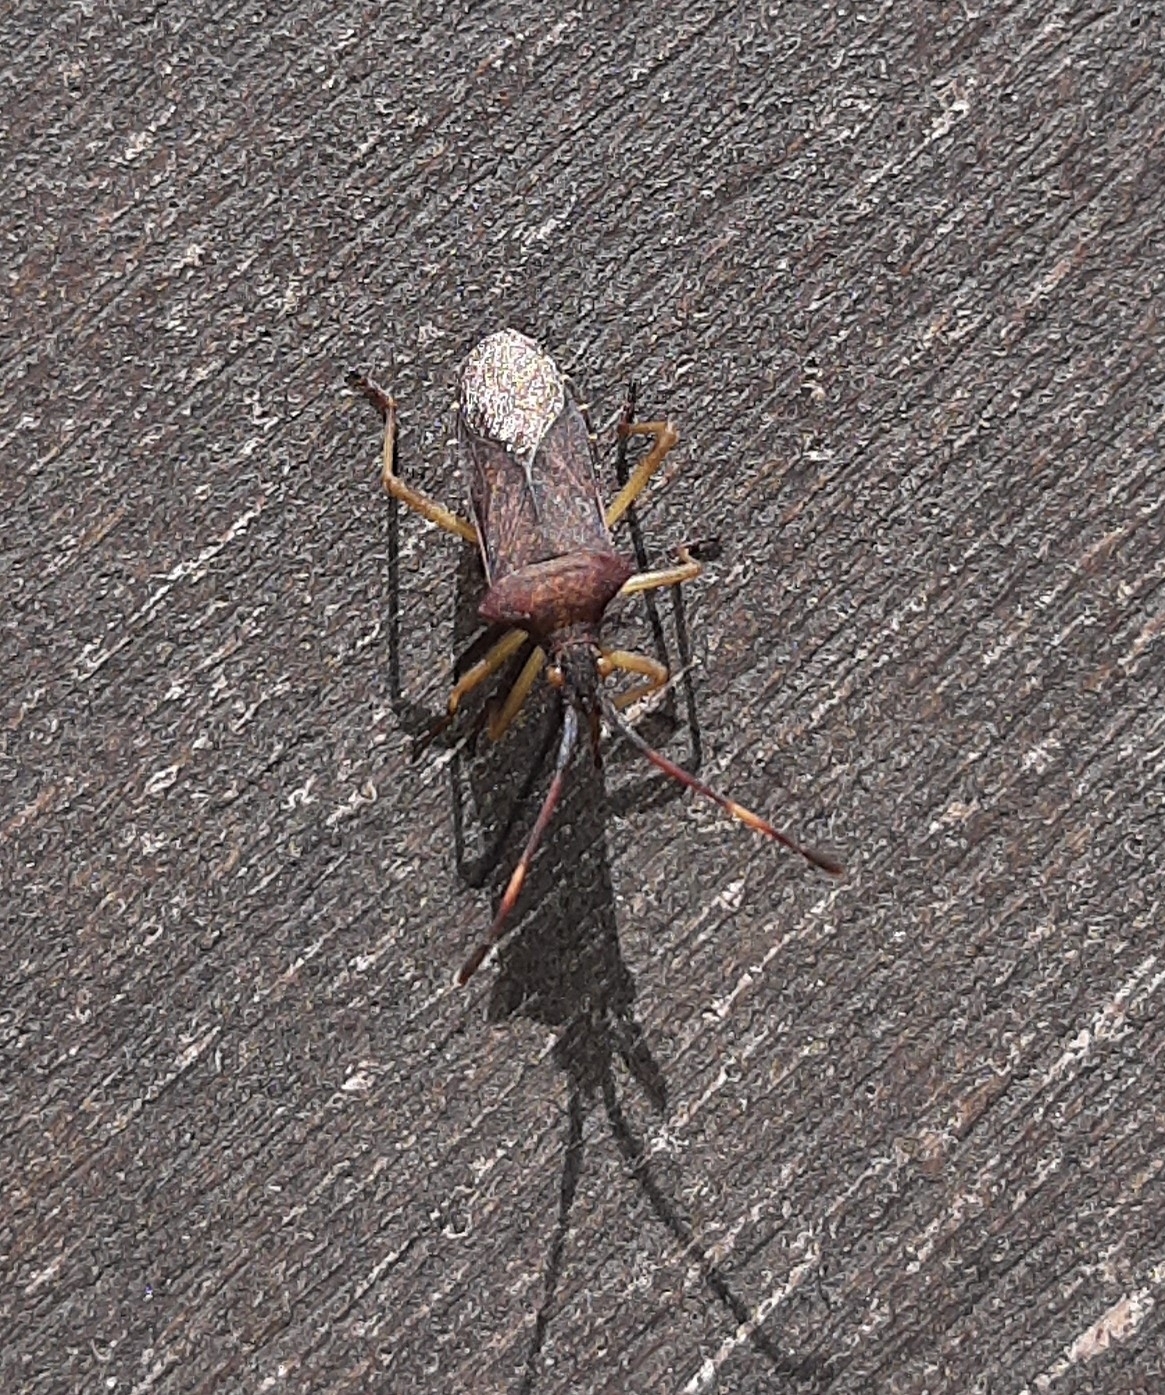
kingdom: Animalia
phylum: Arthropoda
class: Insecta
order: Hemiptera
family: Coreidae
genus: Gonocerus
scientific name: Gonocerus acuteangulatus
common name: Box bug
